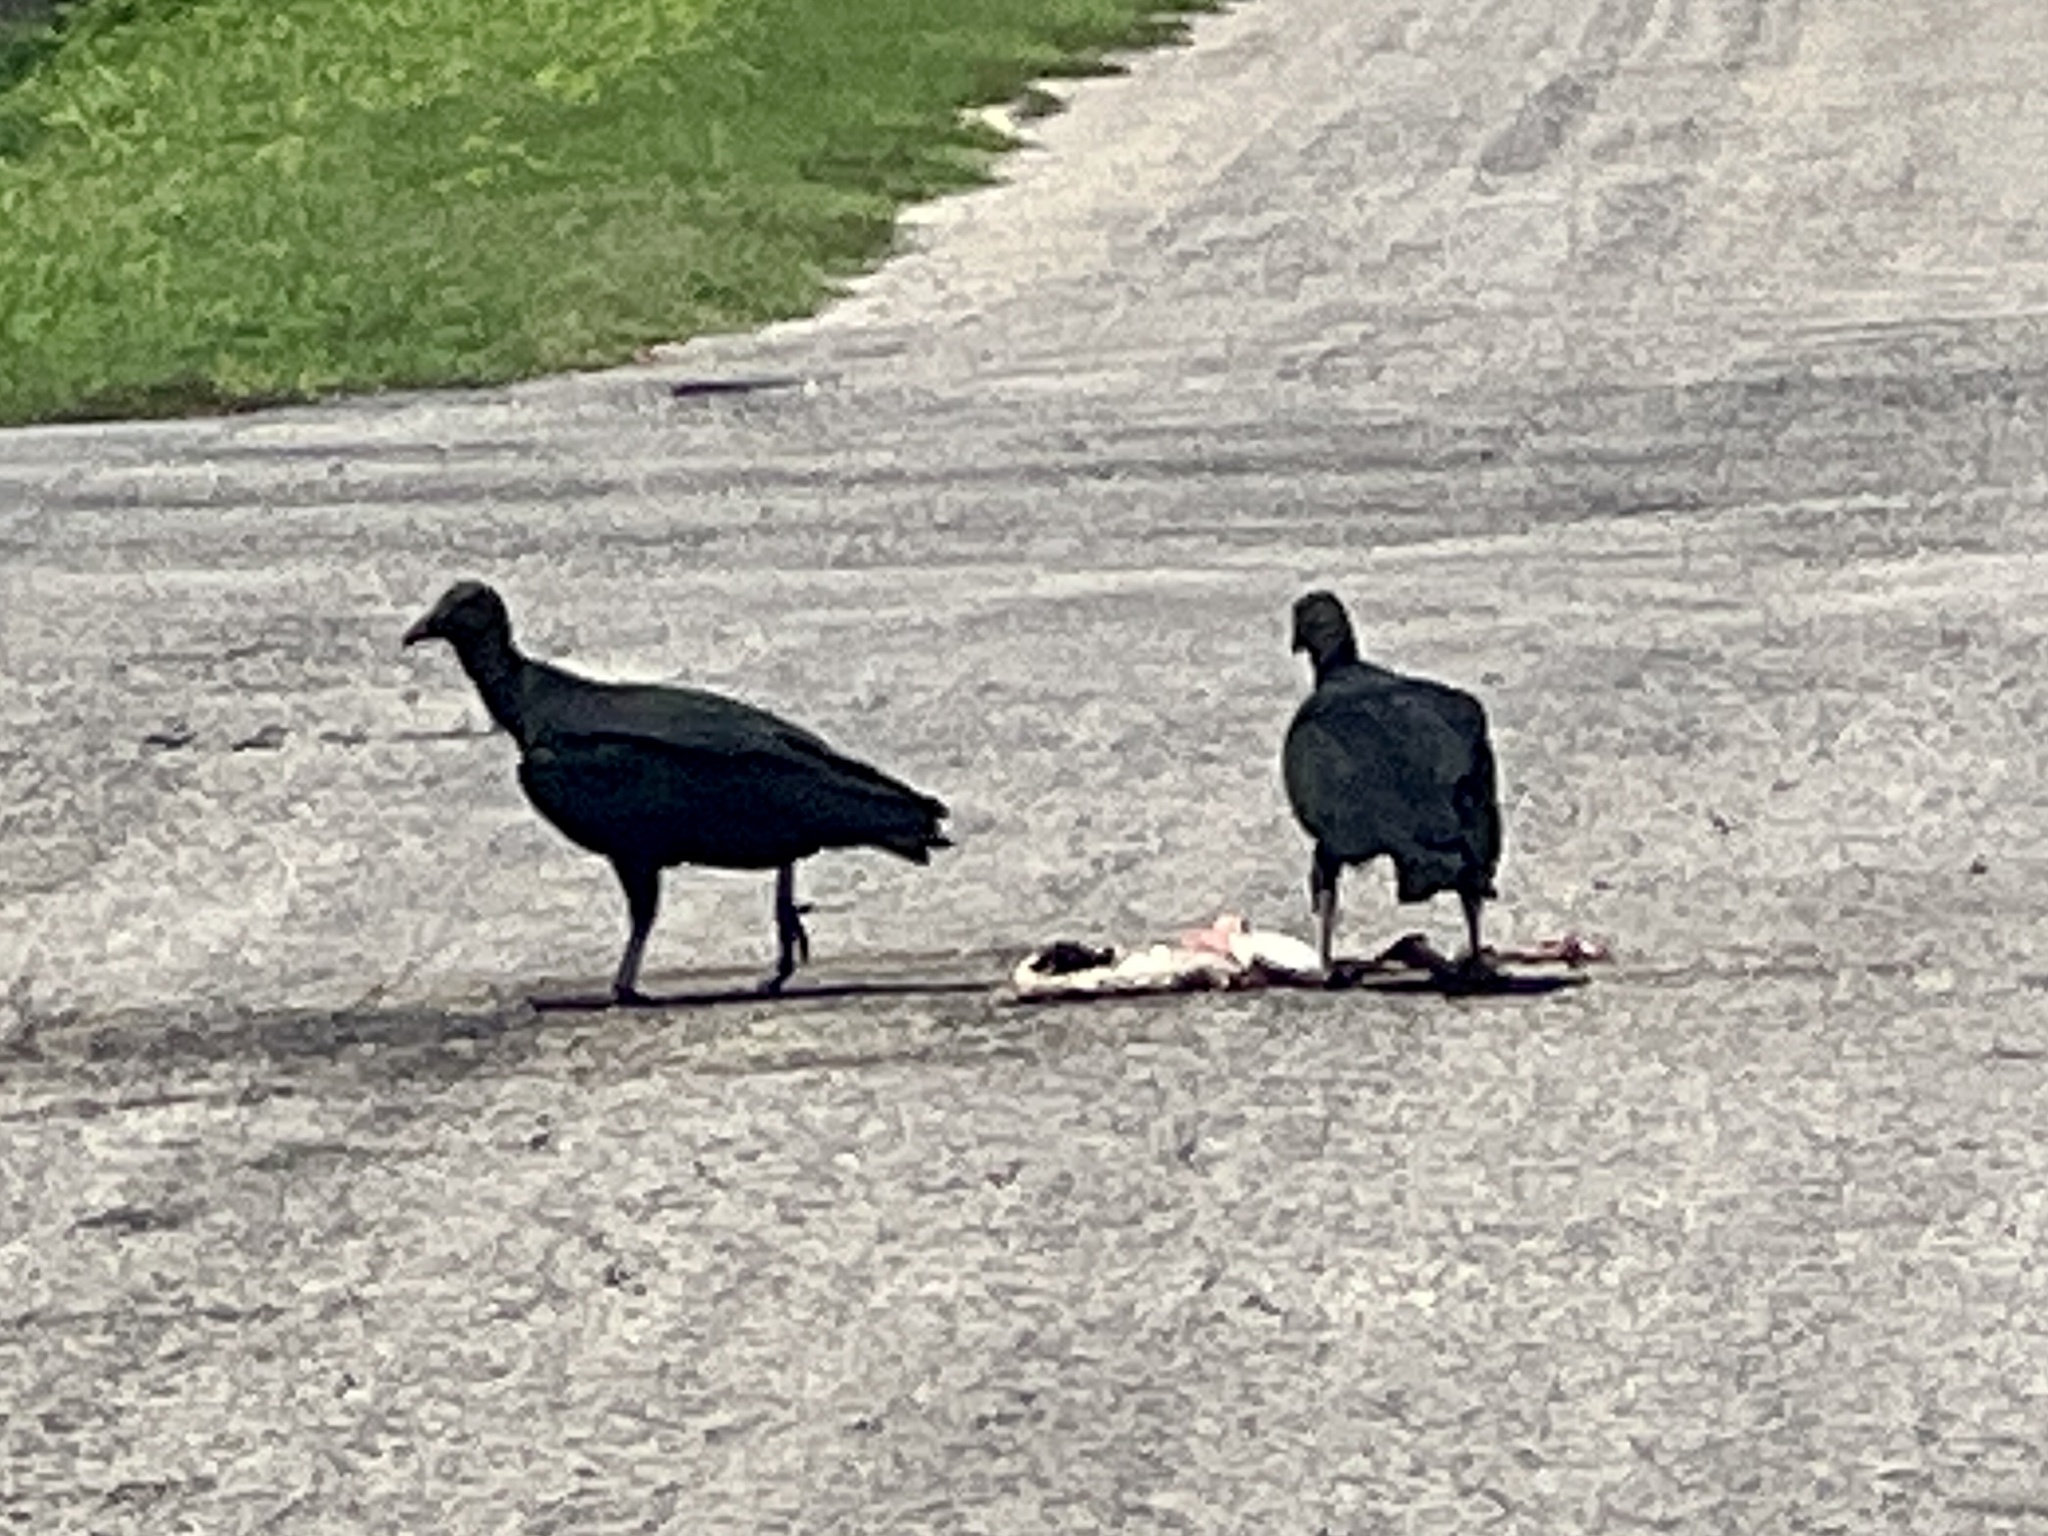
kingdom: Animalia
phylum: Chordata
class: Aves
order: Accipitriformes
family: Cathartidae
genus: Coragyps
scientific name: Coragyps atratus
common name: Black vulture
